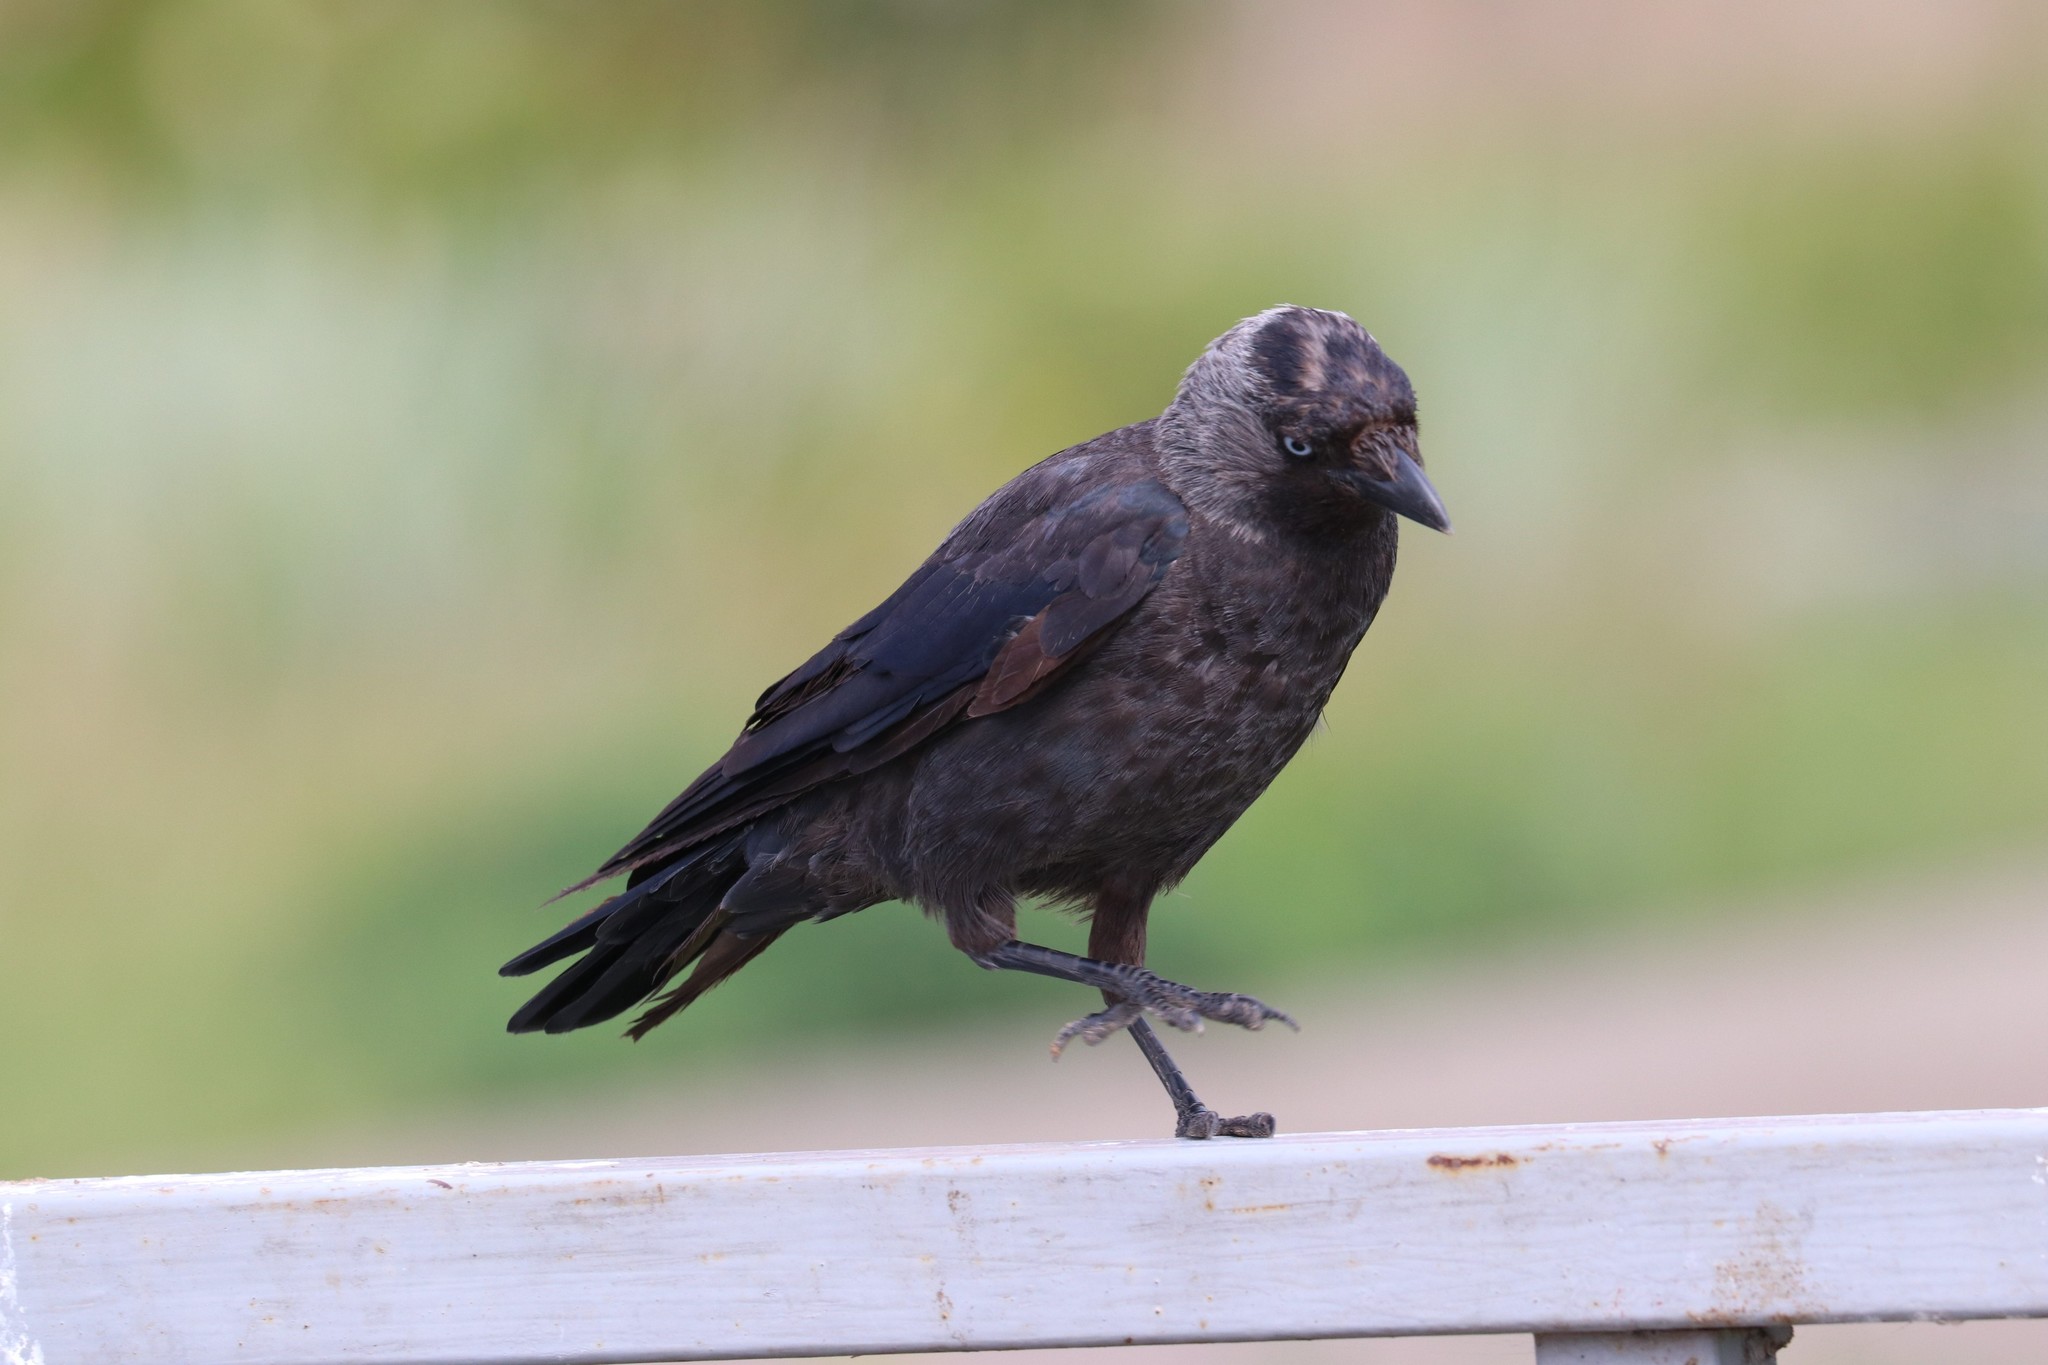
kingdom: Animalia
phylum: Chordata
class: Aves
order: Passeriformes
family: Corvidae
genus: Coloeus
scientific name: Coloeus monedula
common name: Western jackdaw
